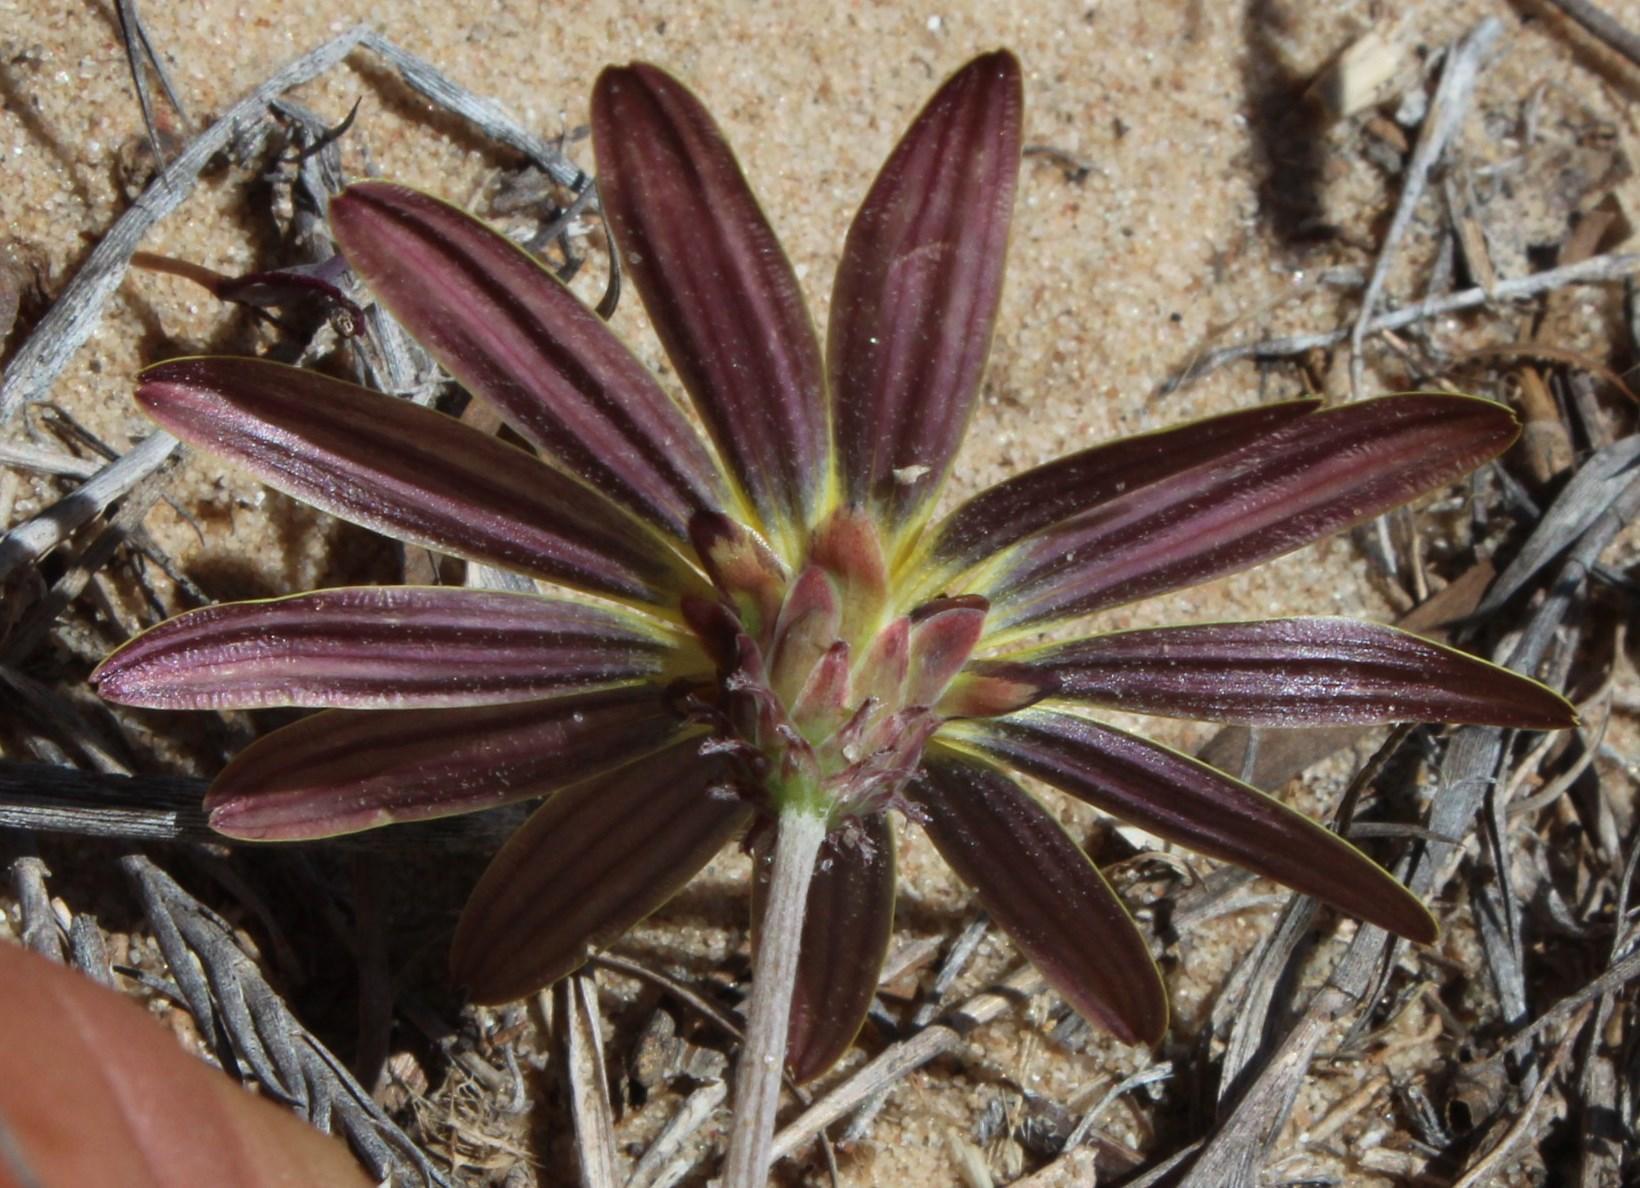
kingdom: Plantae
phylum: Tracheophyta
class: Magnoliopsida
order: Asterales
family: Asteraceae
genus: Arctotheca
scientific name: Arctotheca calendula
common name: Capeweed
